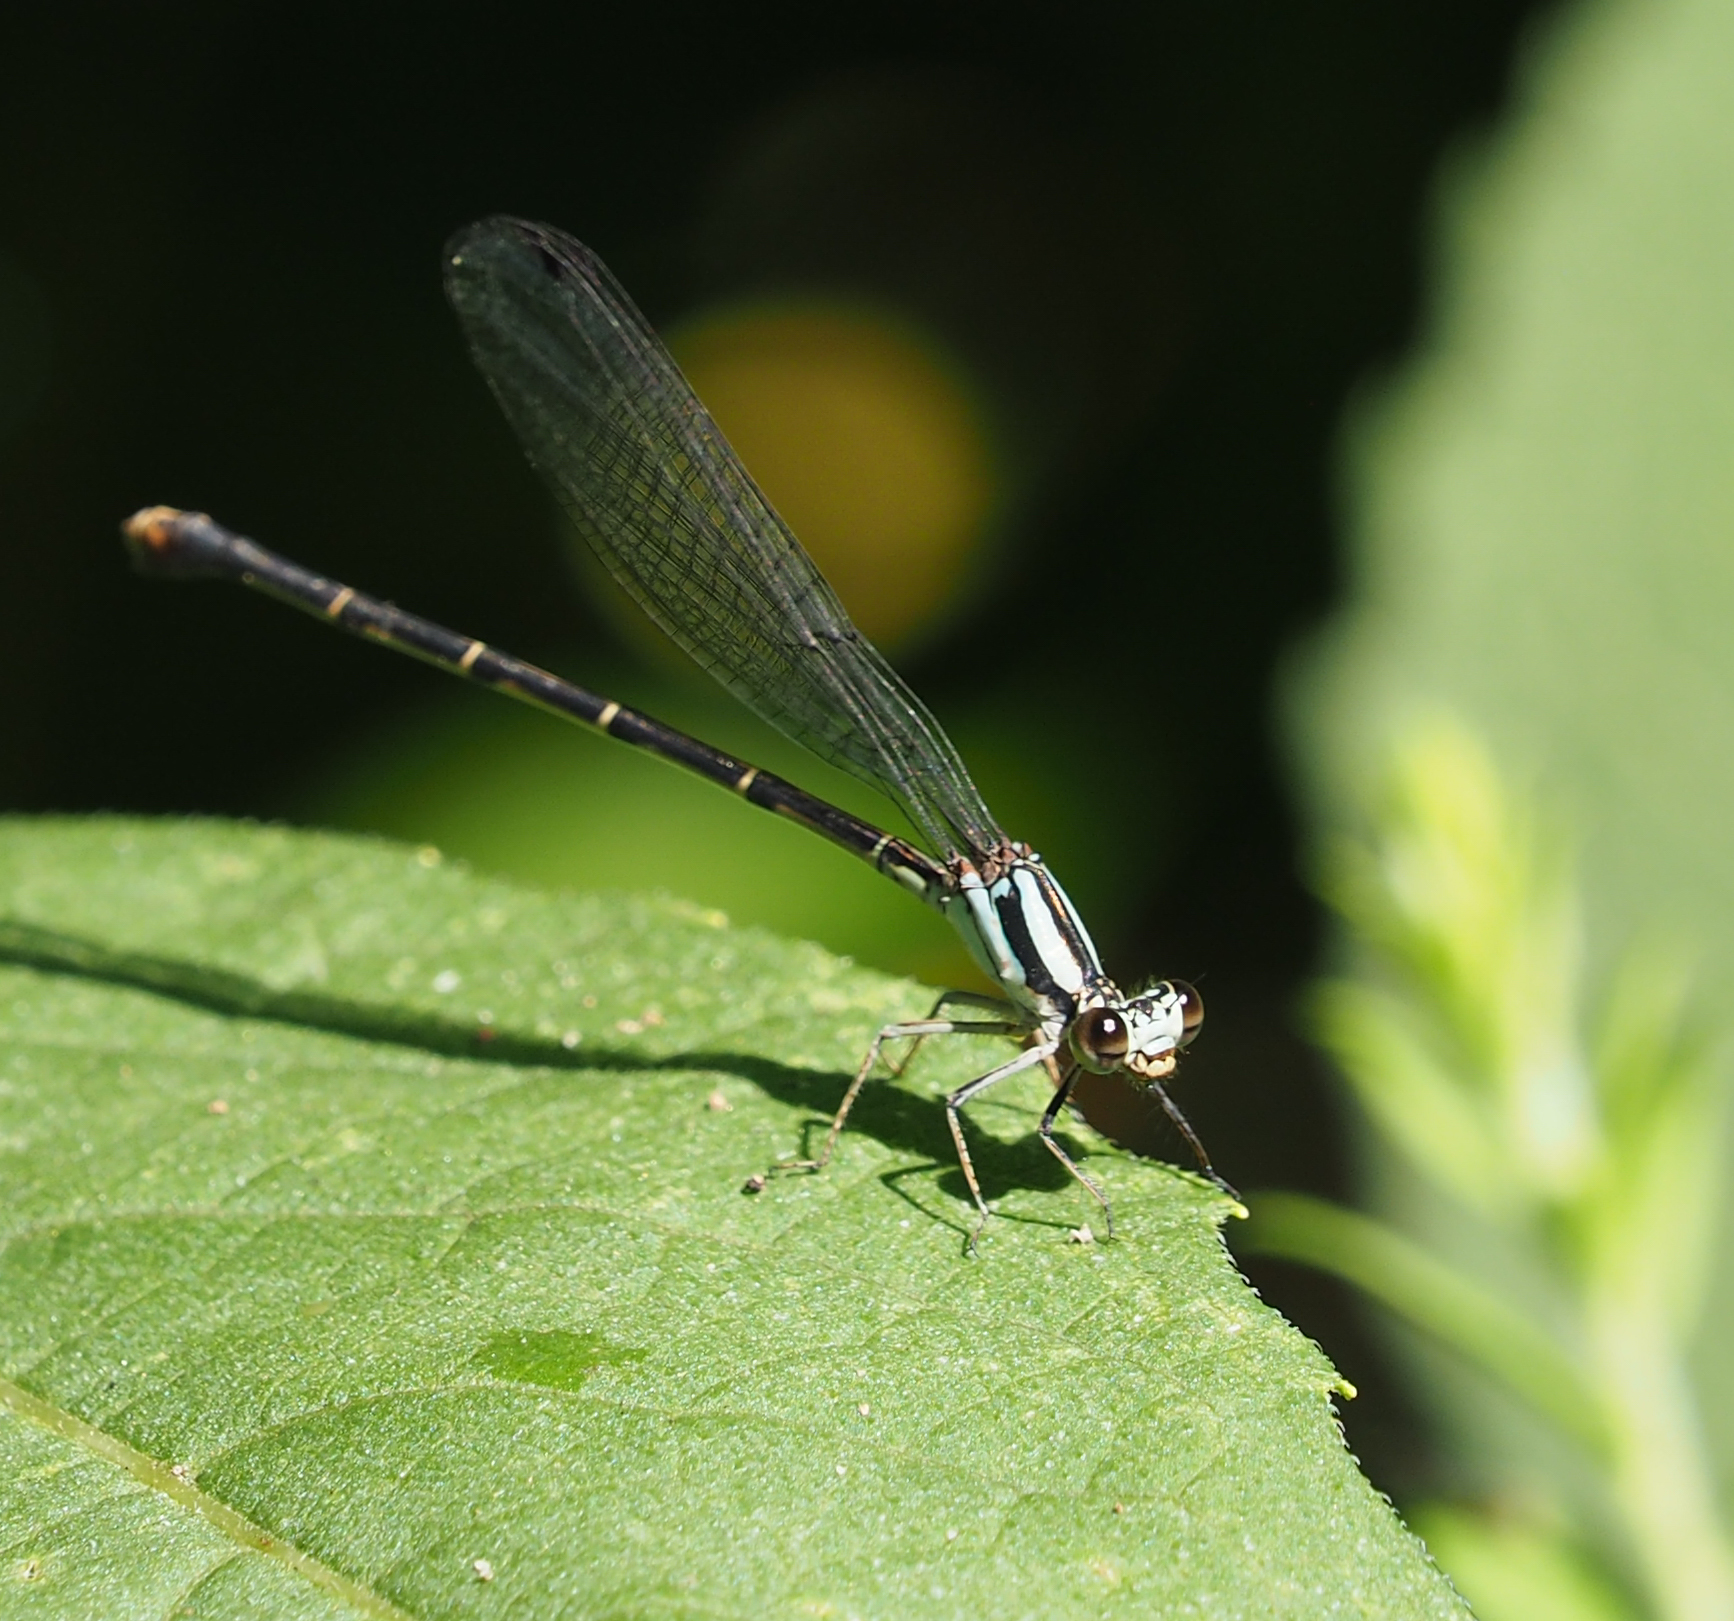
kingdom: Animalia
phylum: Arthropoda
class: Insecta
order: Odonata
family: Coenagrionidae
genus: Argia
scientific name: Argia tibialis
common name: Blue-tipped dancer
